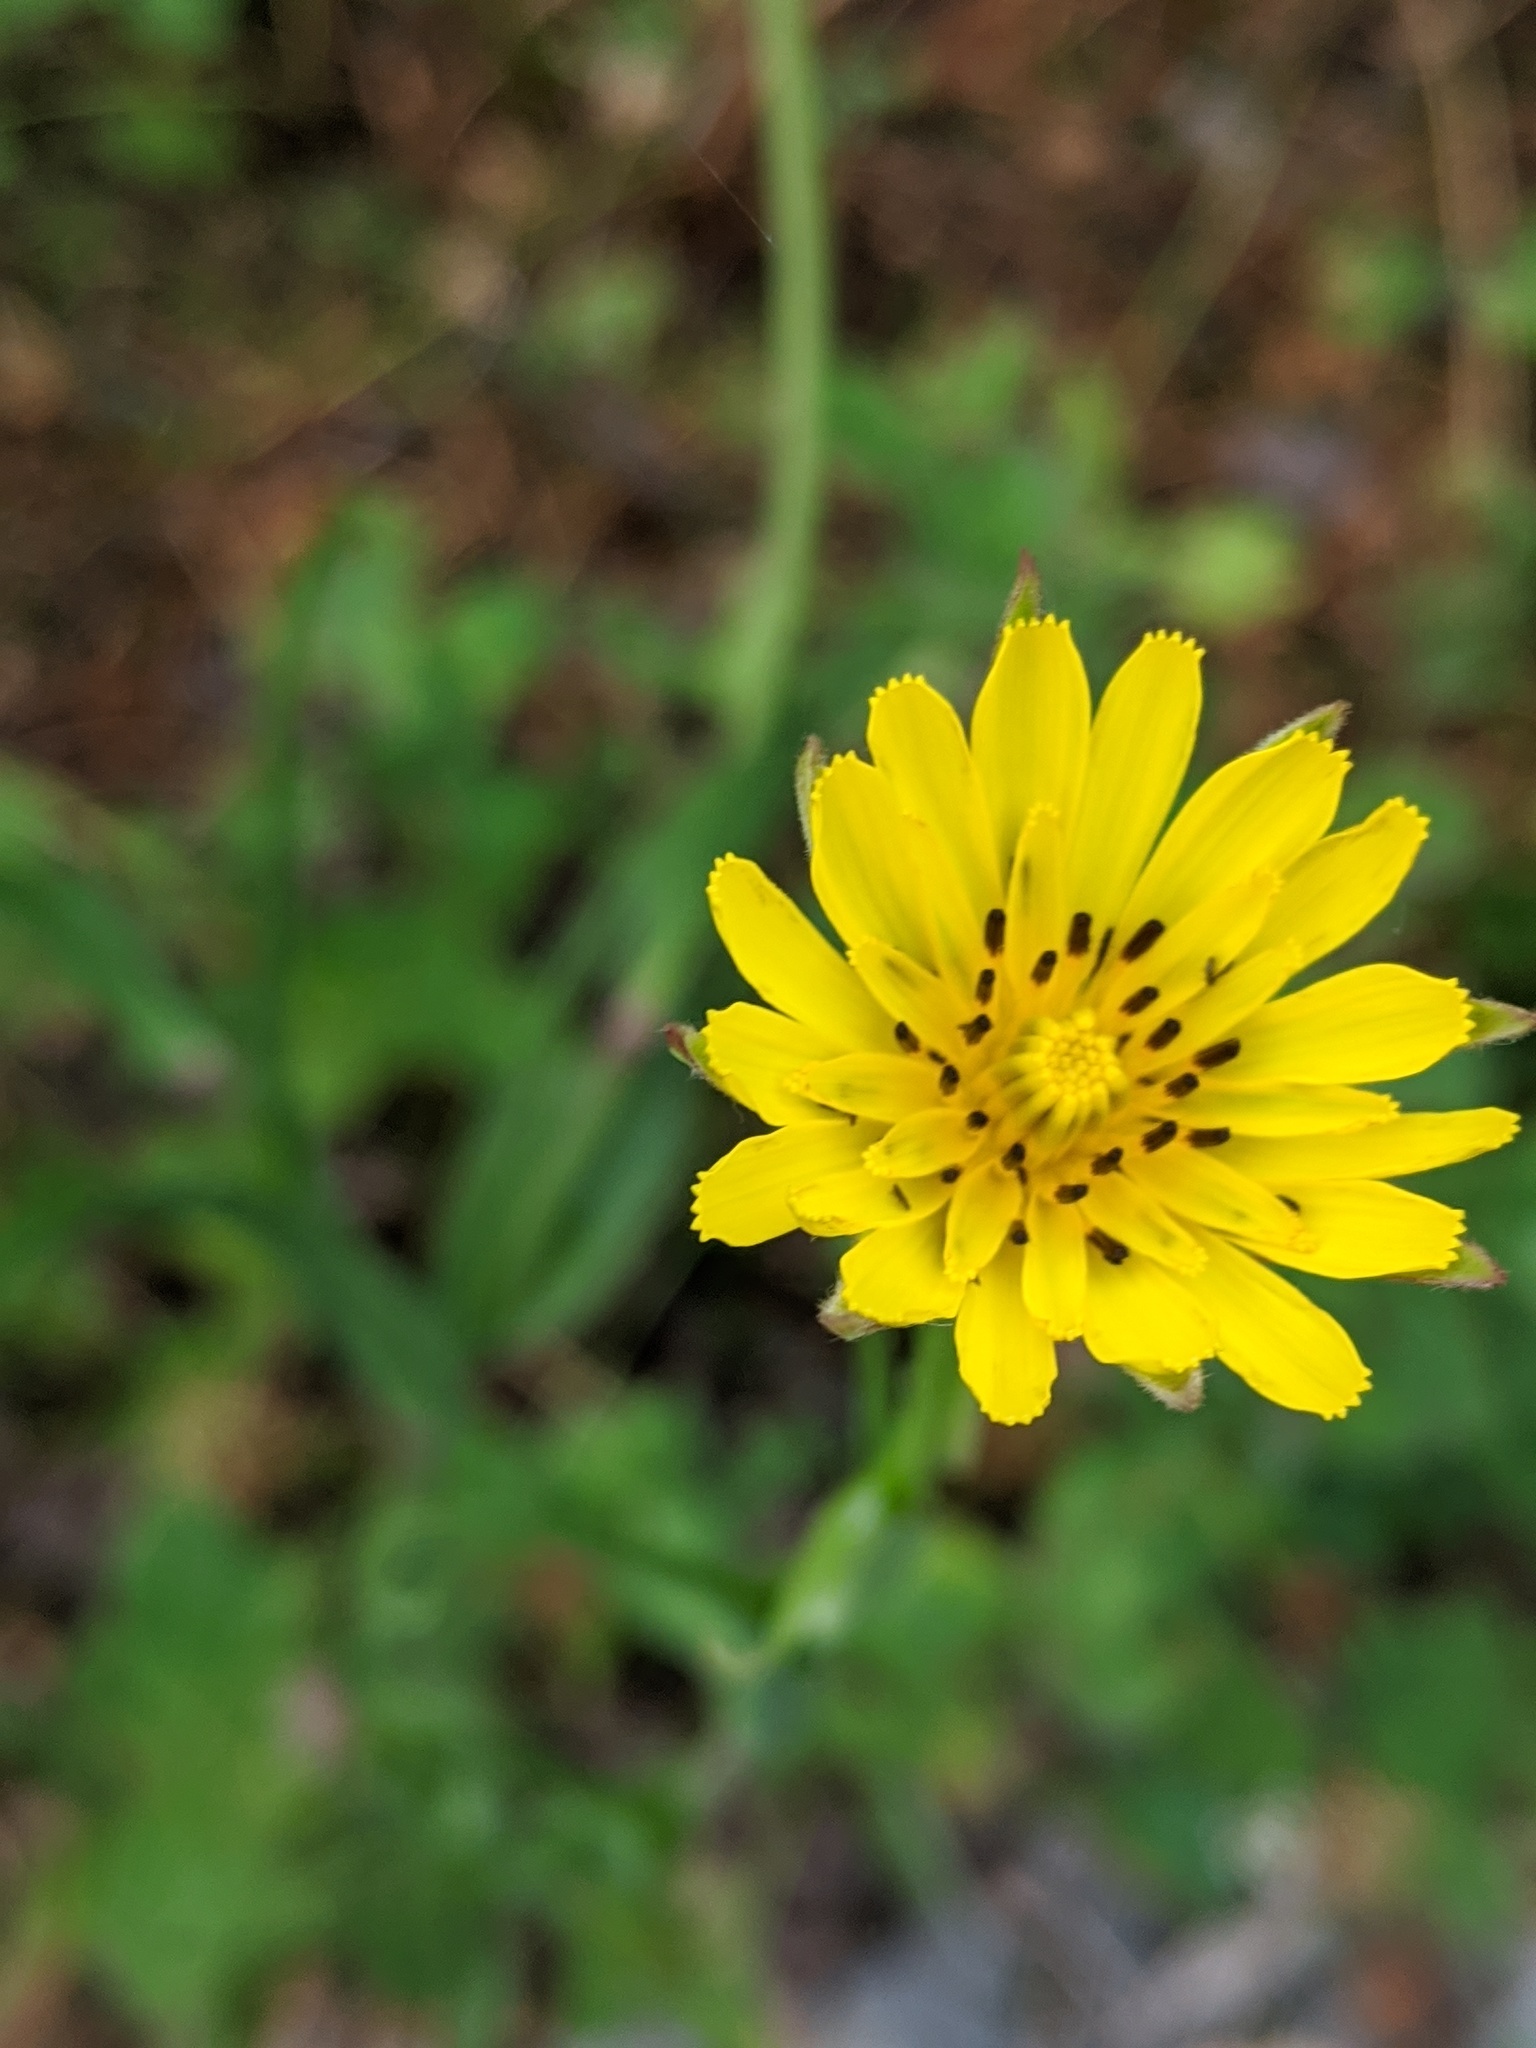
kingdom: Plantae
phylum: Tracheophyta
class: Magnoliopsida
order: Asterales
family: Asteraceae
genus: Tragopogon
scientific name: Tragopogon pratensis
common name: Goat's-beard
